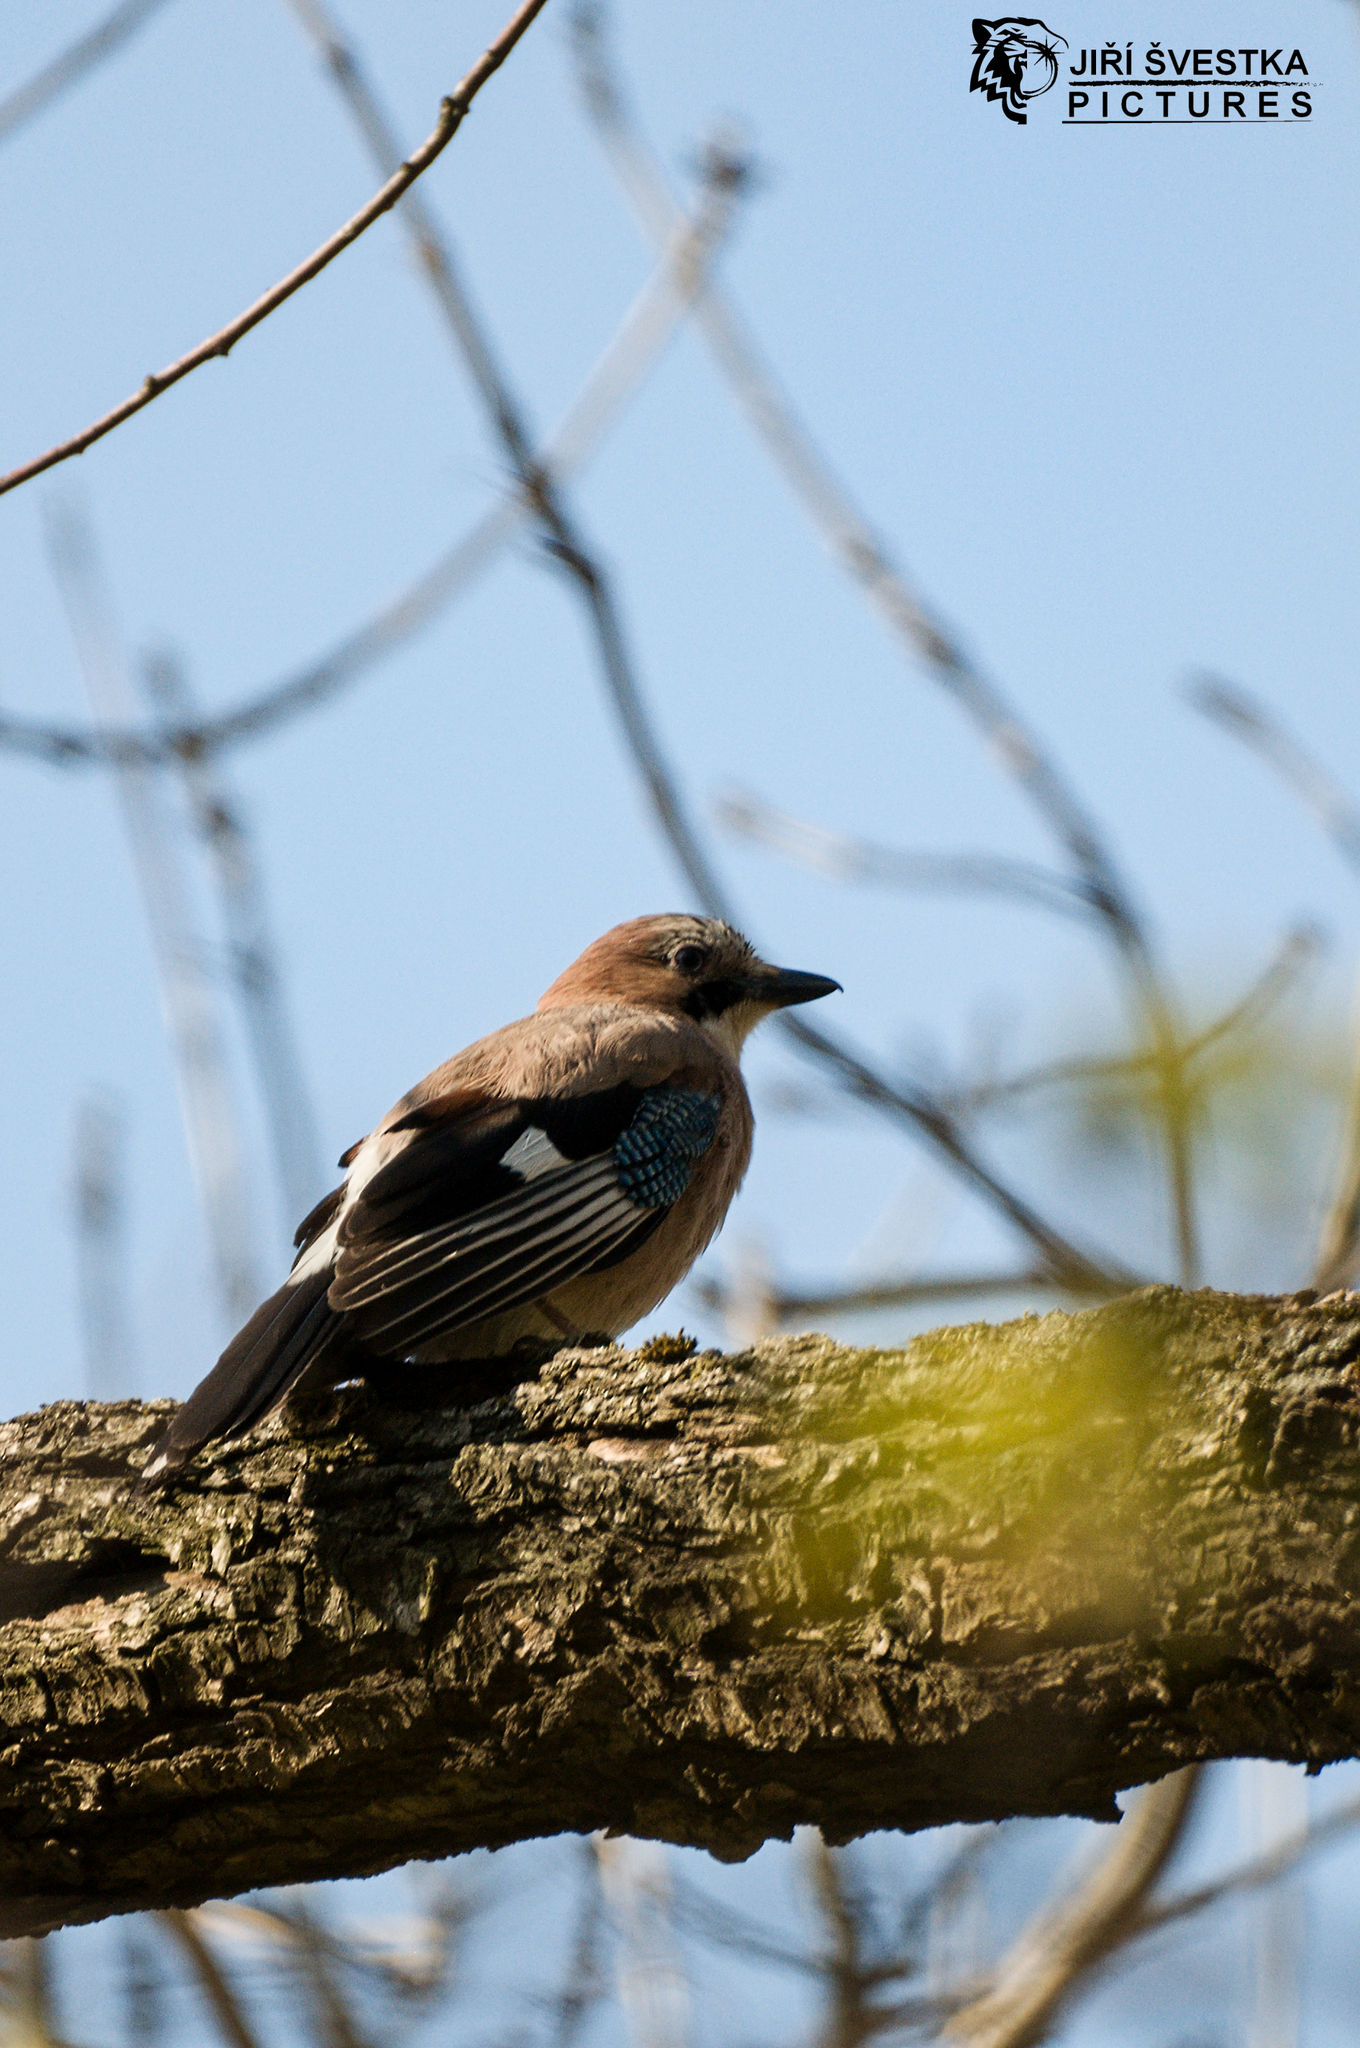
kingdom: Animalia
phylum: Chordata
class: Aves
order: Passeriformes
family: Corvidae
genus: Garrulus
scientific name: Garrulus glandarius
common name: Eurasian jay
